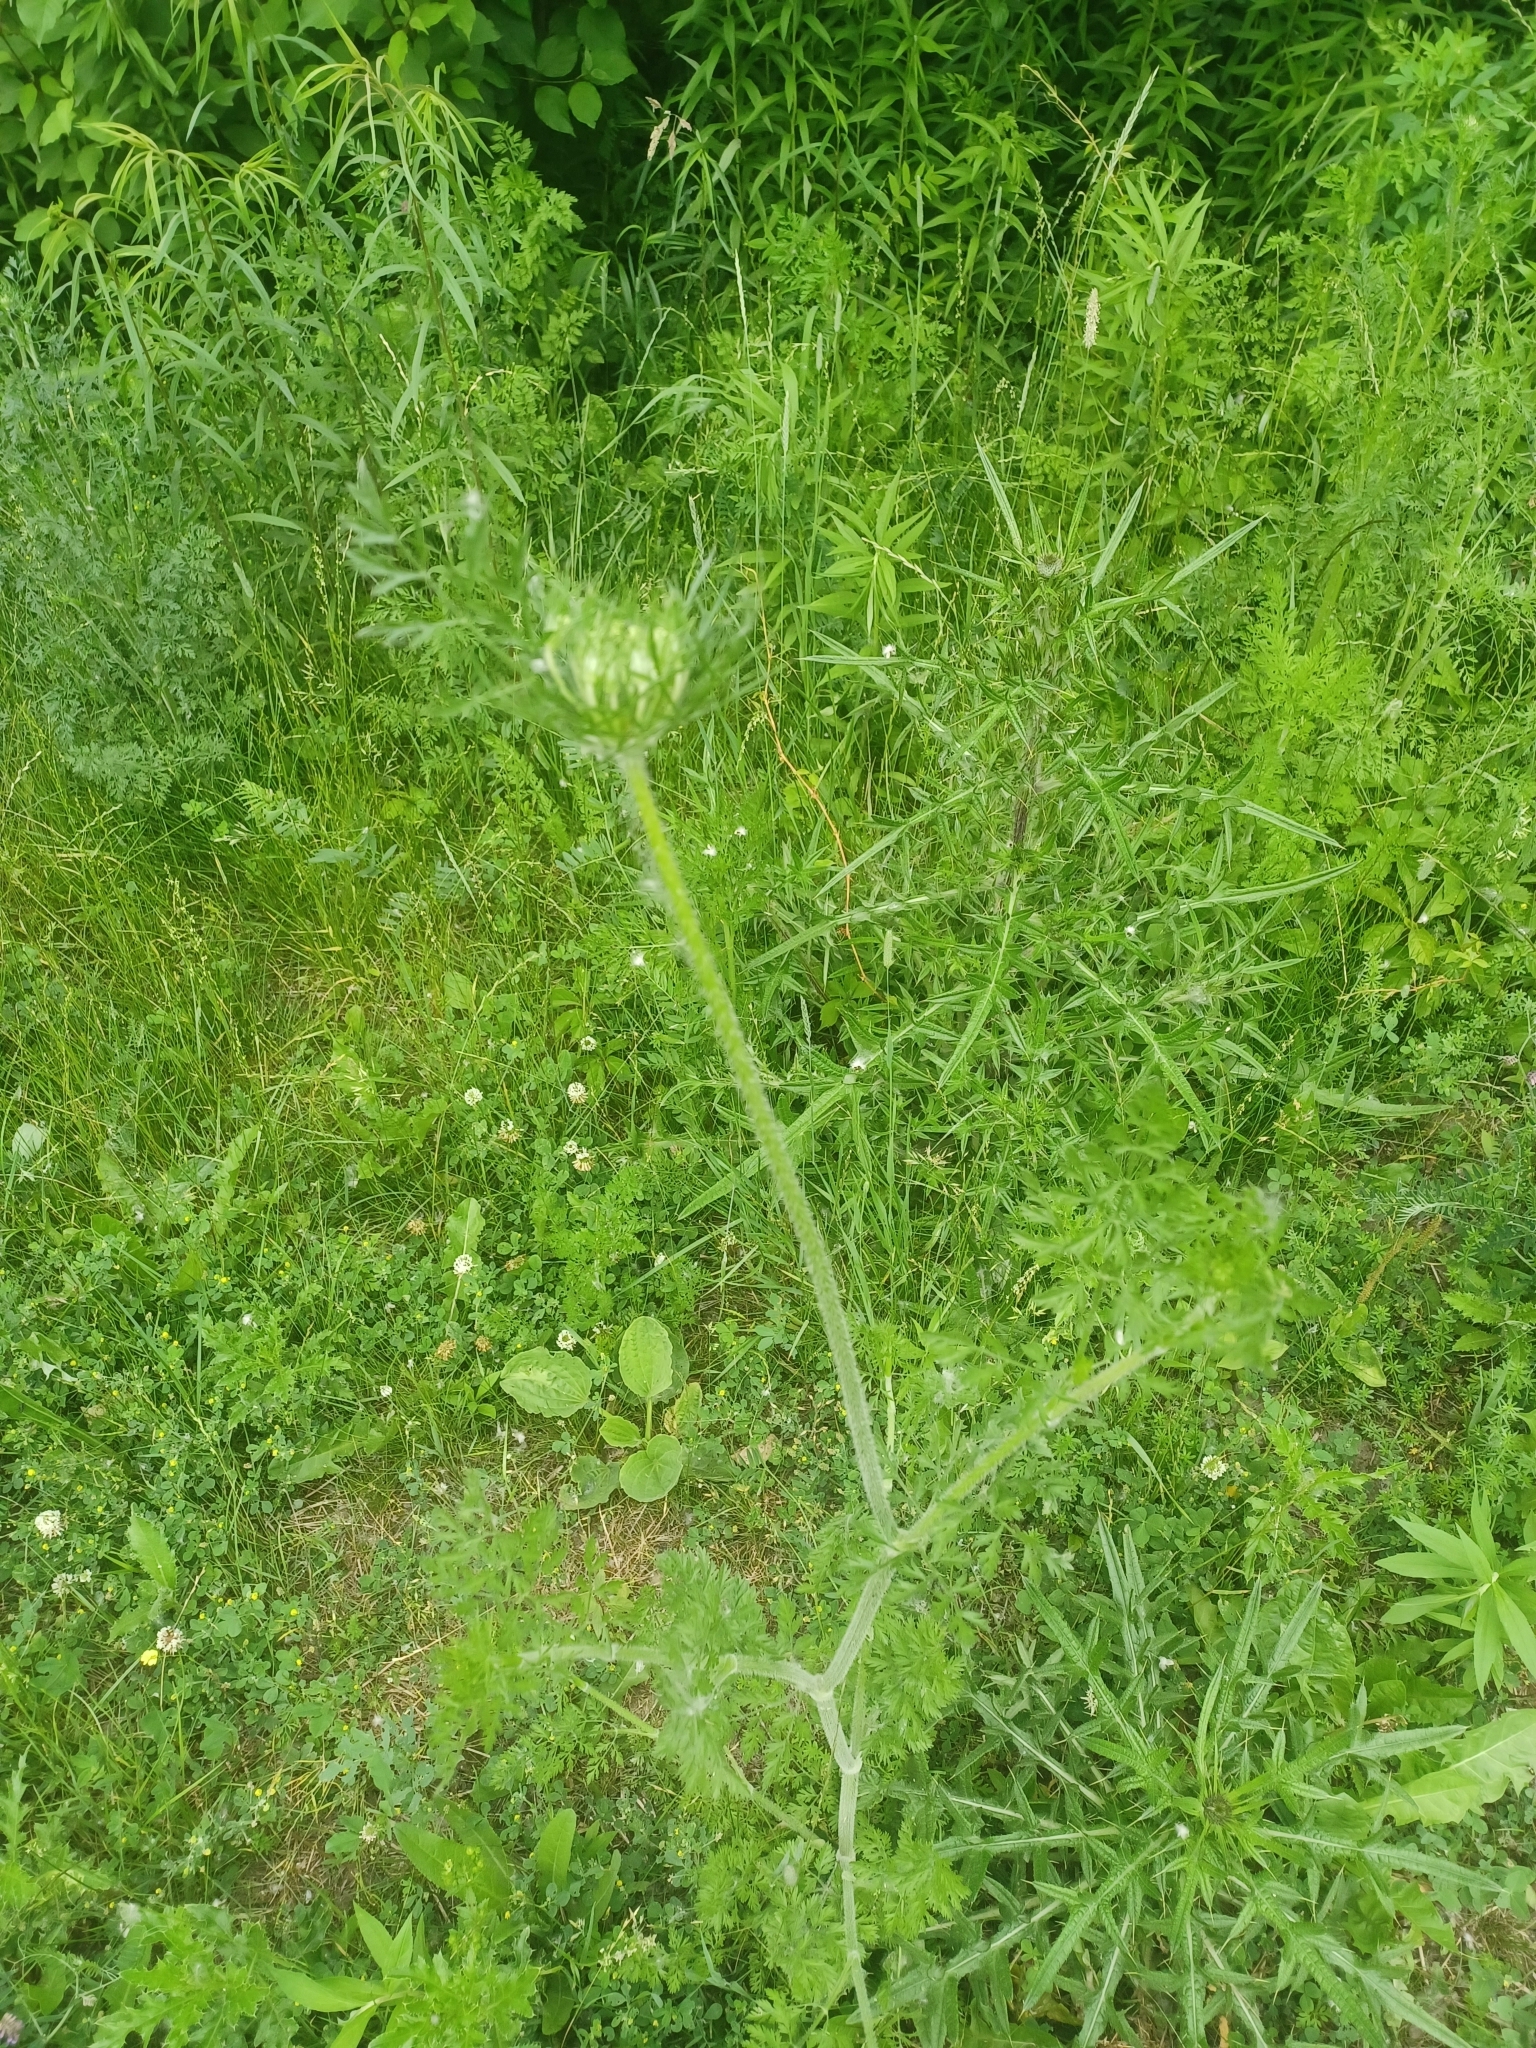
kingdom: Plantae
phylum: Tracheophyta
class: Magnoliopsida
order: Apiales
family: Apiaceae
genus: Daucus
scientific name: Daucus carota
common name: Wild carrot
